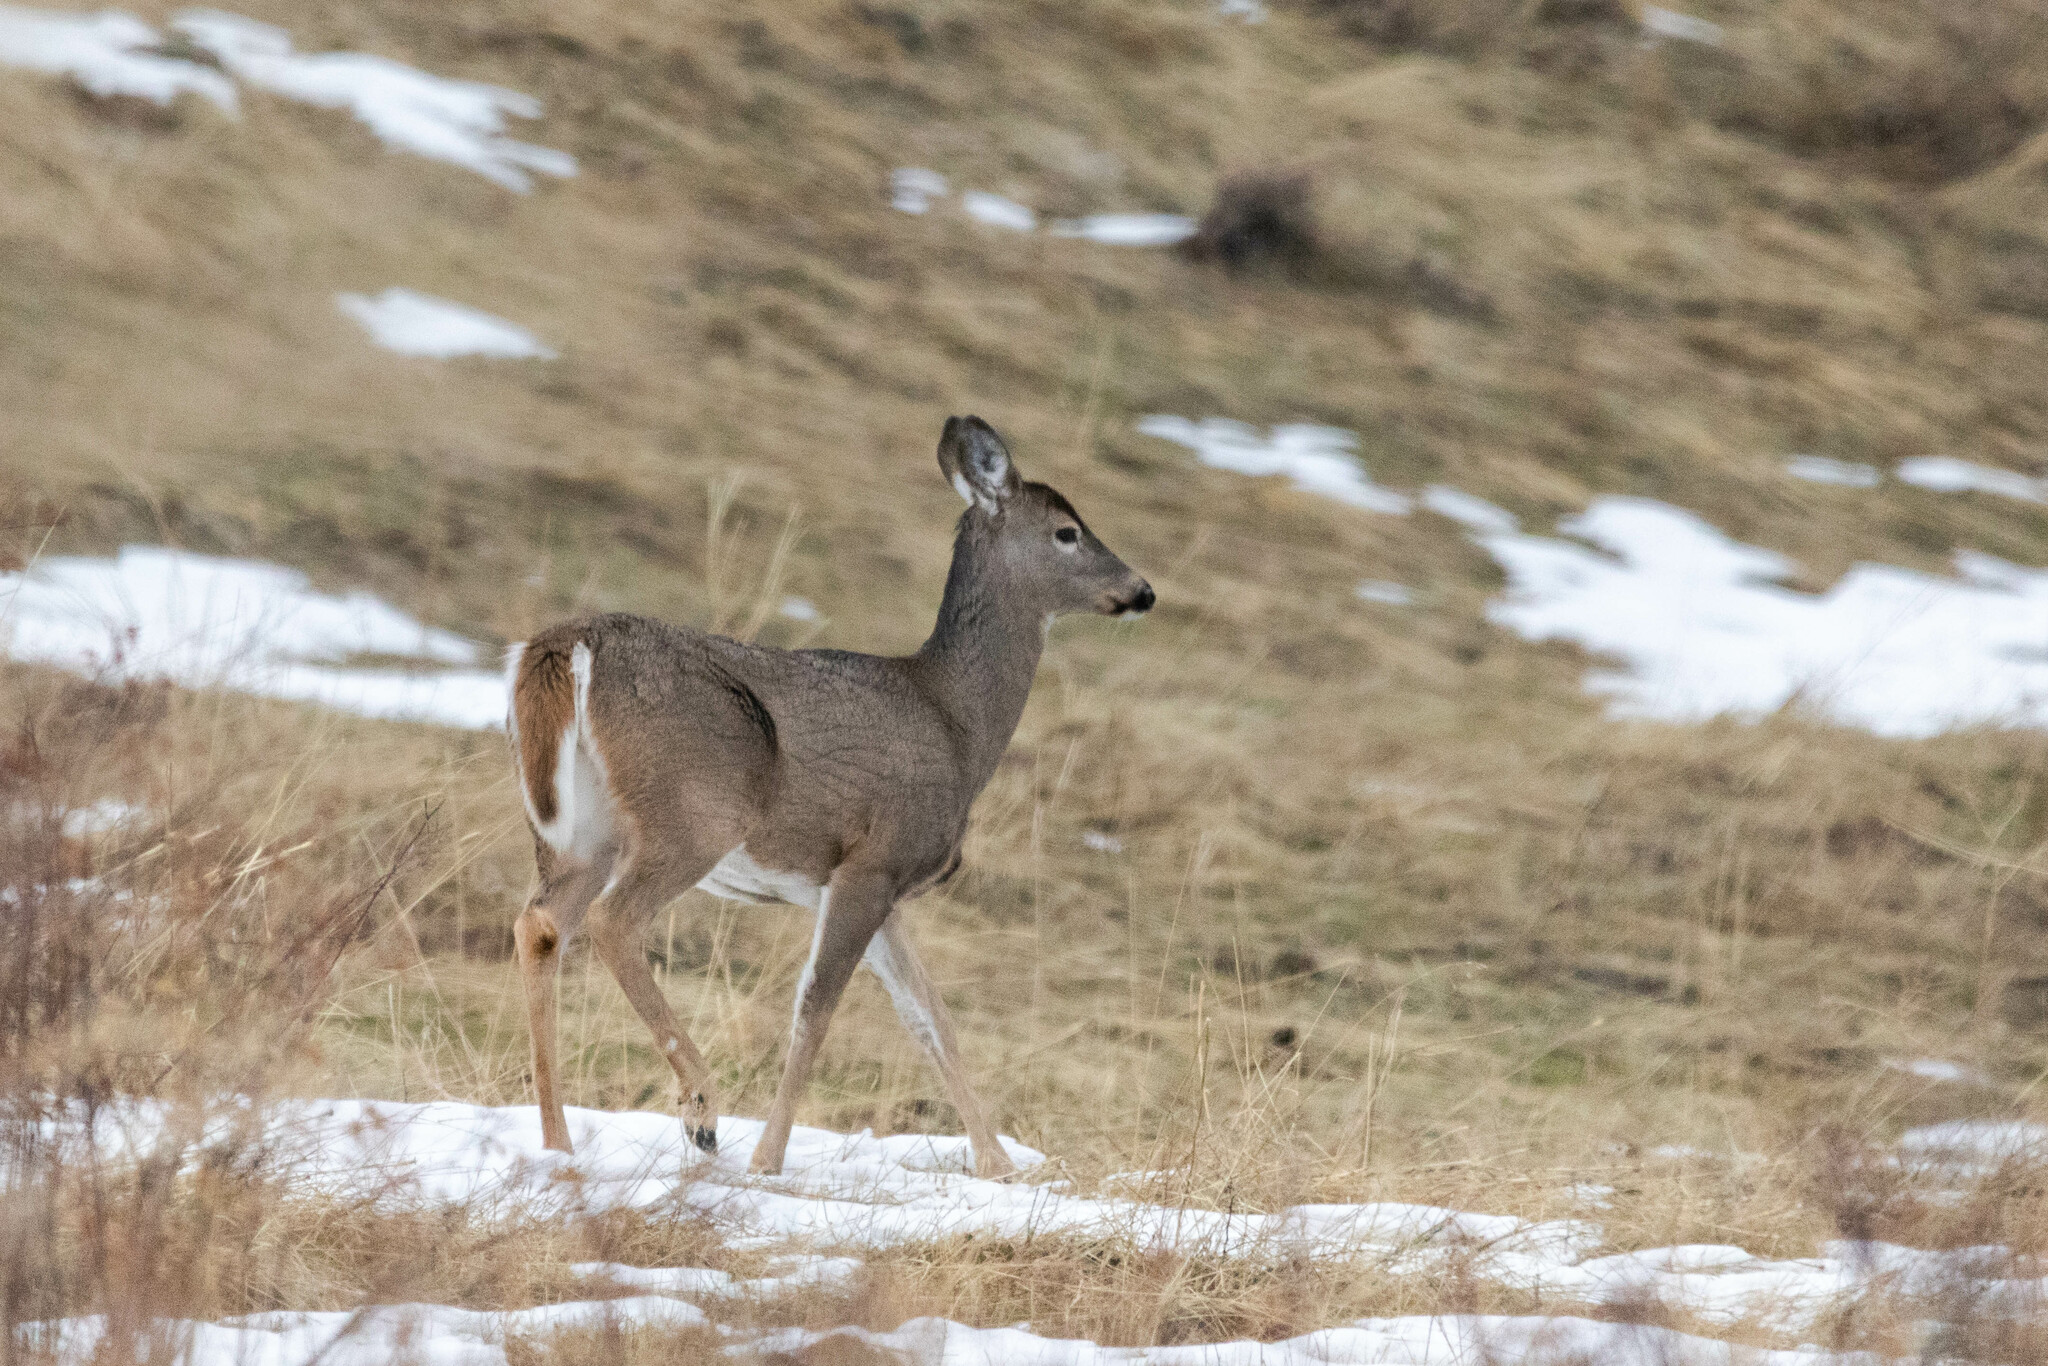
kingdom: Animalia
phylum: Chordata
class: Mammalia
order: Artiodactyla
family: Cervidae
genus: Odocoileus
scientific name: Odocoileus virginianus
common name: White-tailed deer
